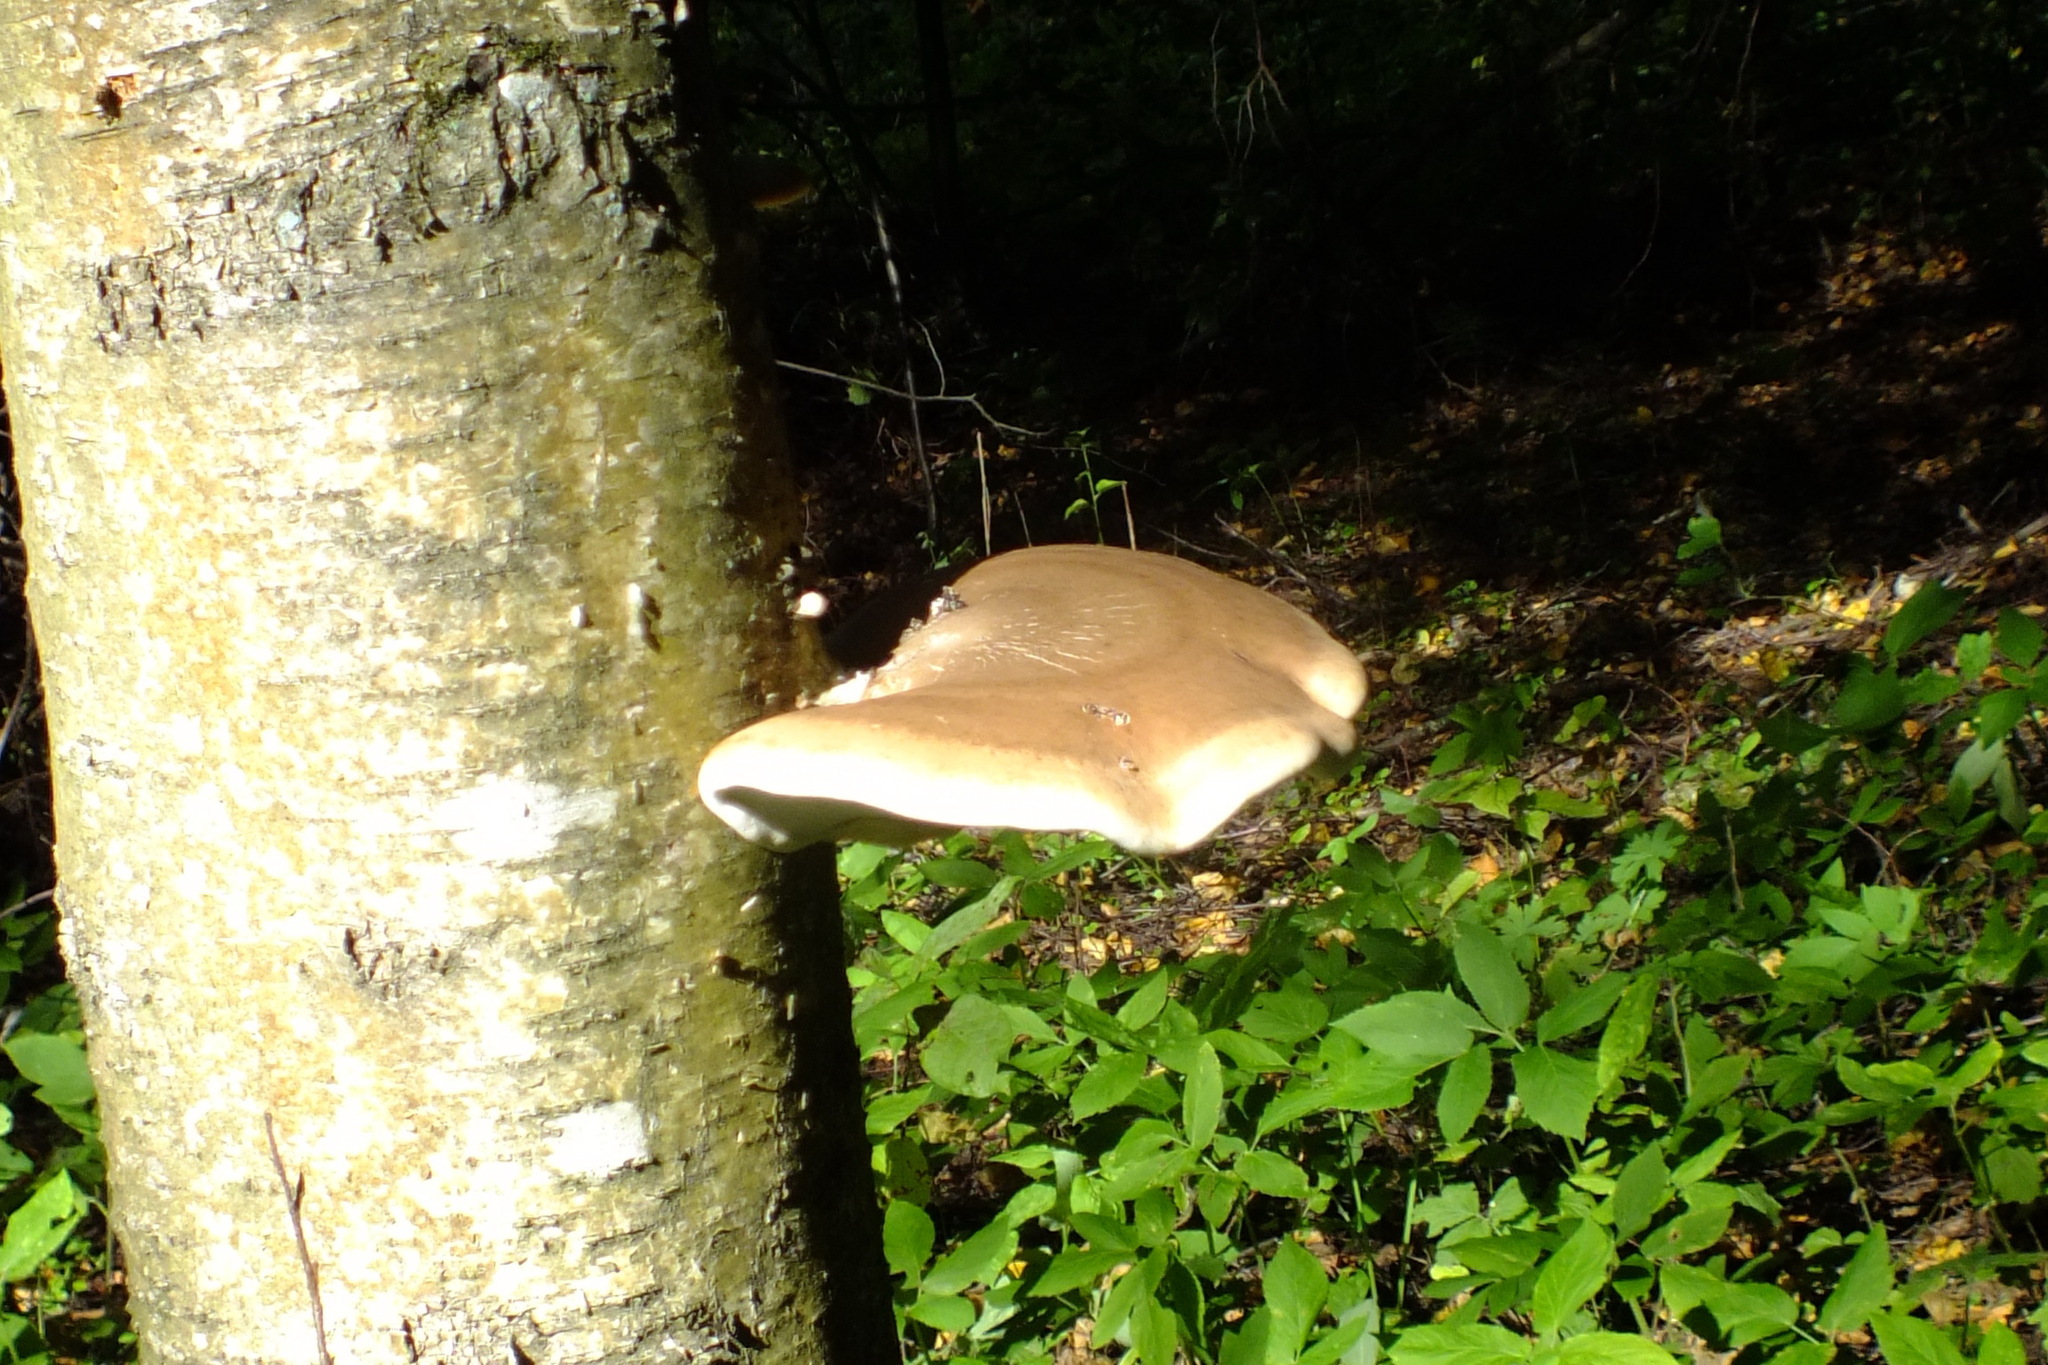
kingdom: Fungi
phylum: Basidiomycota
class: Agaricomycetes
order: Polyporales
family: Fomitopsidaceae
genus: Fomitopsis
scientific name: Fomitopsis betulina
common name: Birch polypore
